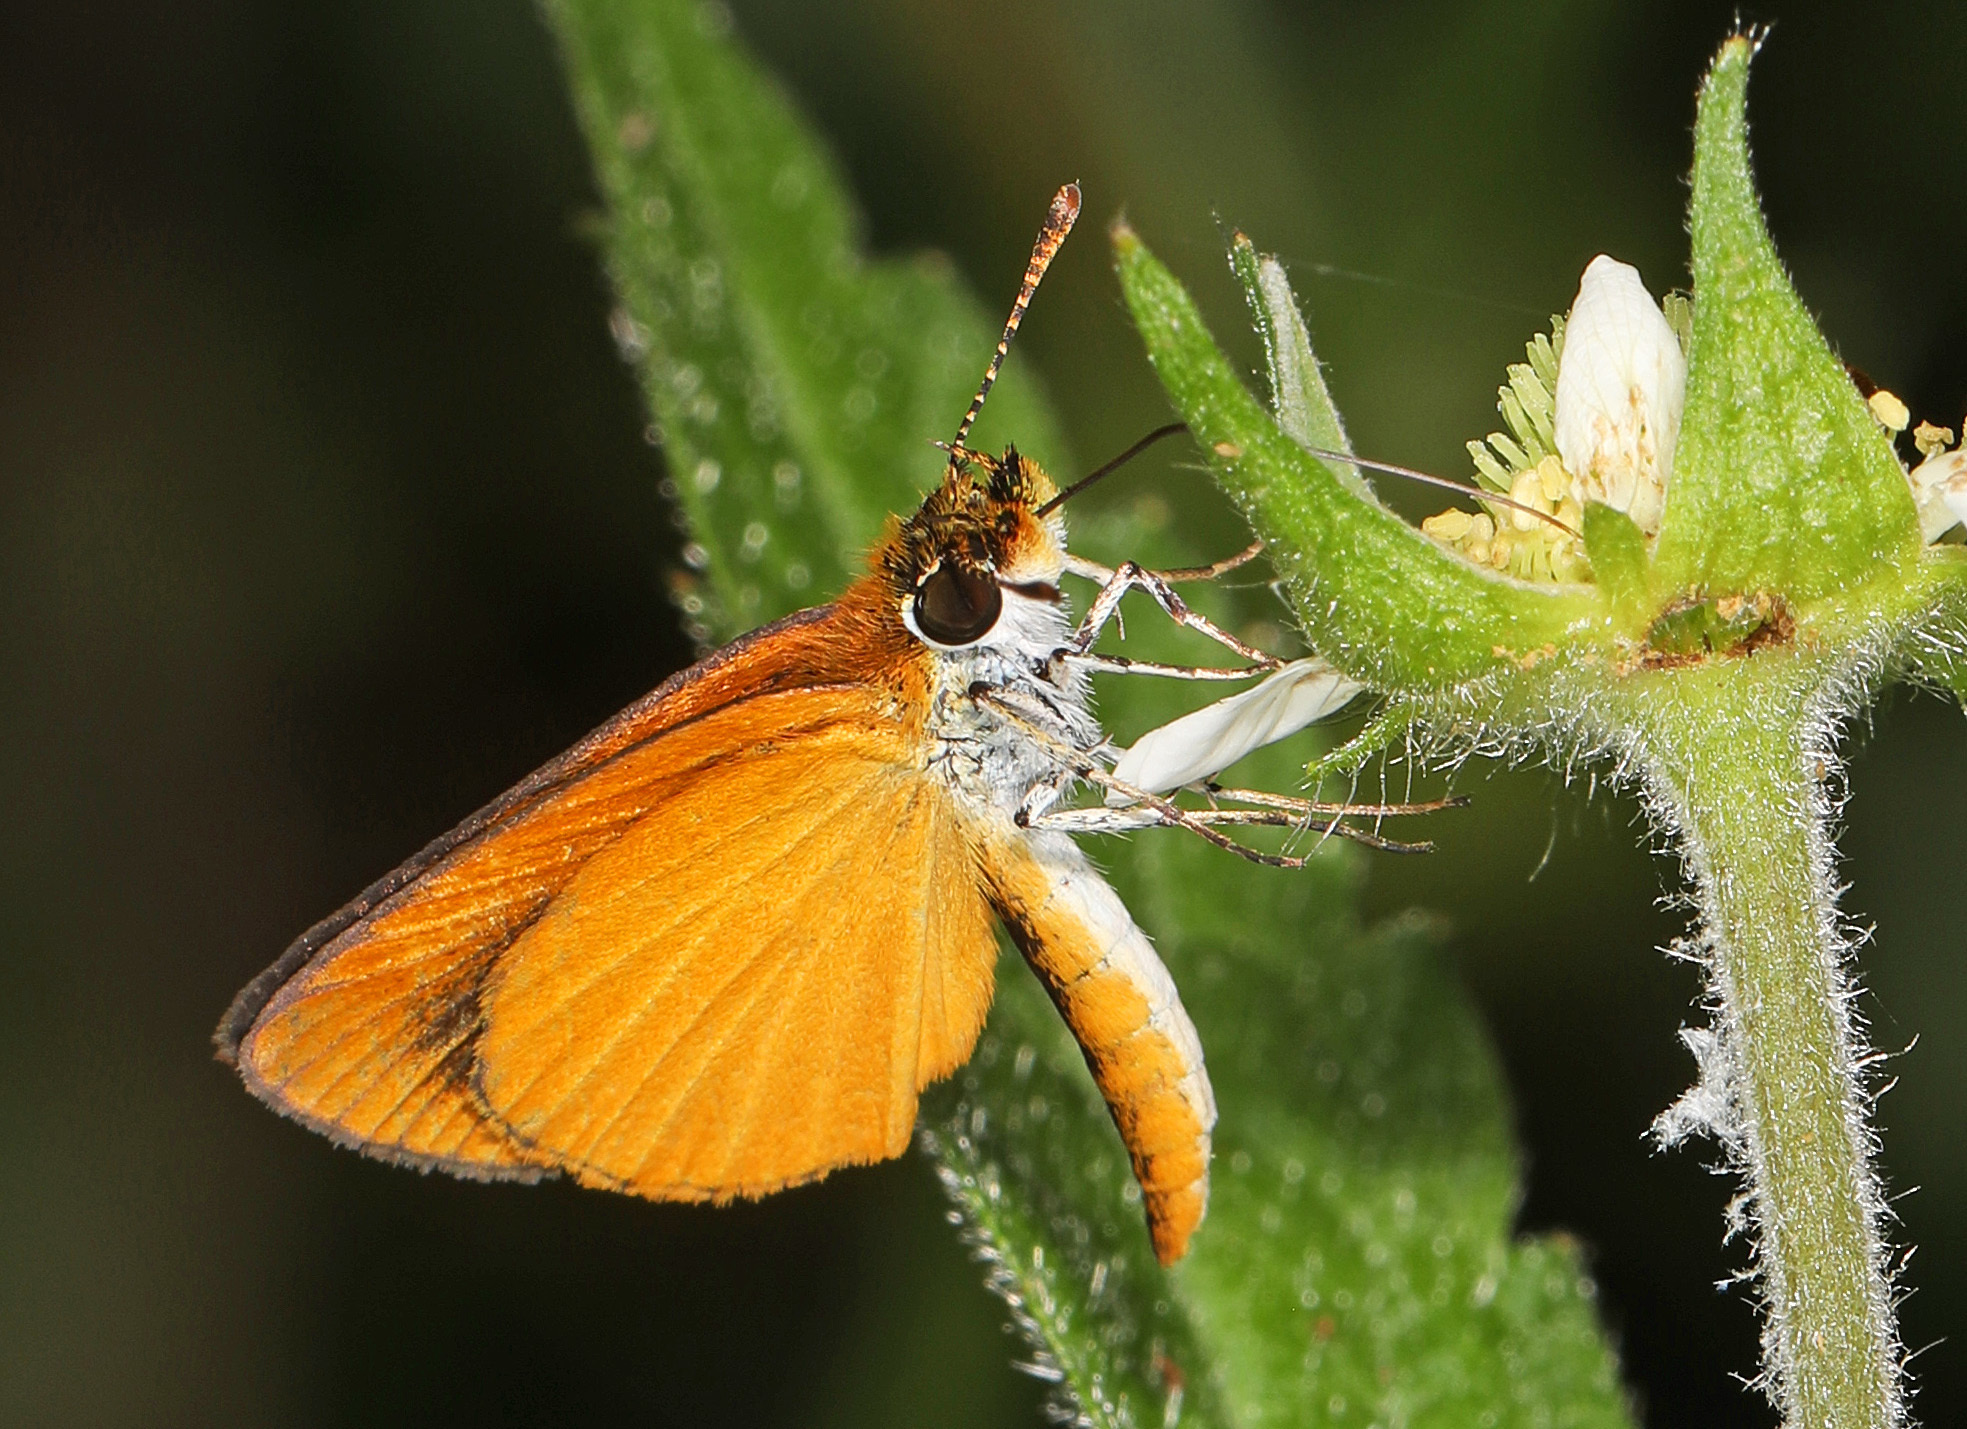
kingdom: Animalia
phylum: Arthropoda
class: Insecta
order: Lepidoptera
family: Hesperiidae
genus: Ancyloxypha
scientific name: Ancyloxypha numitor
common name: Least skipper
